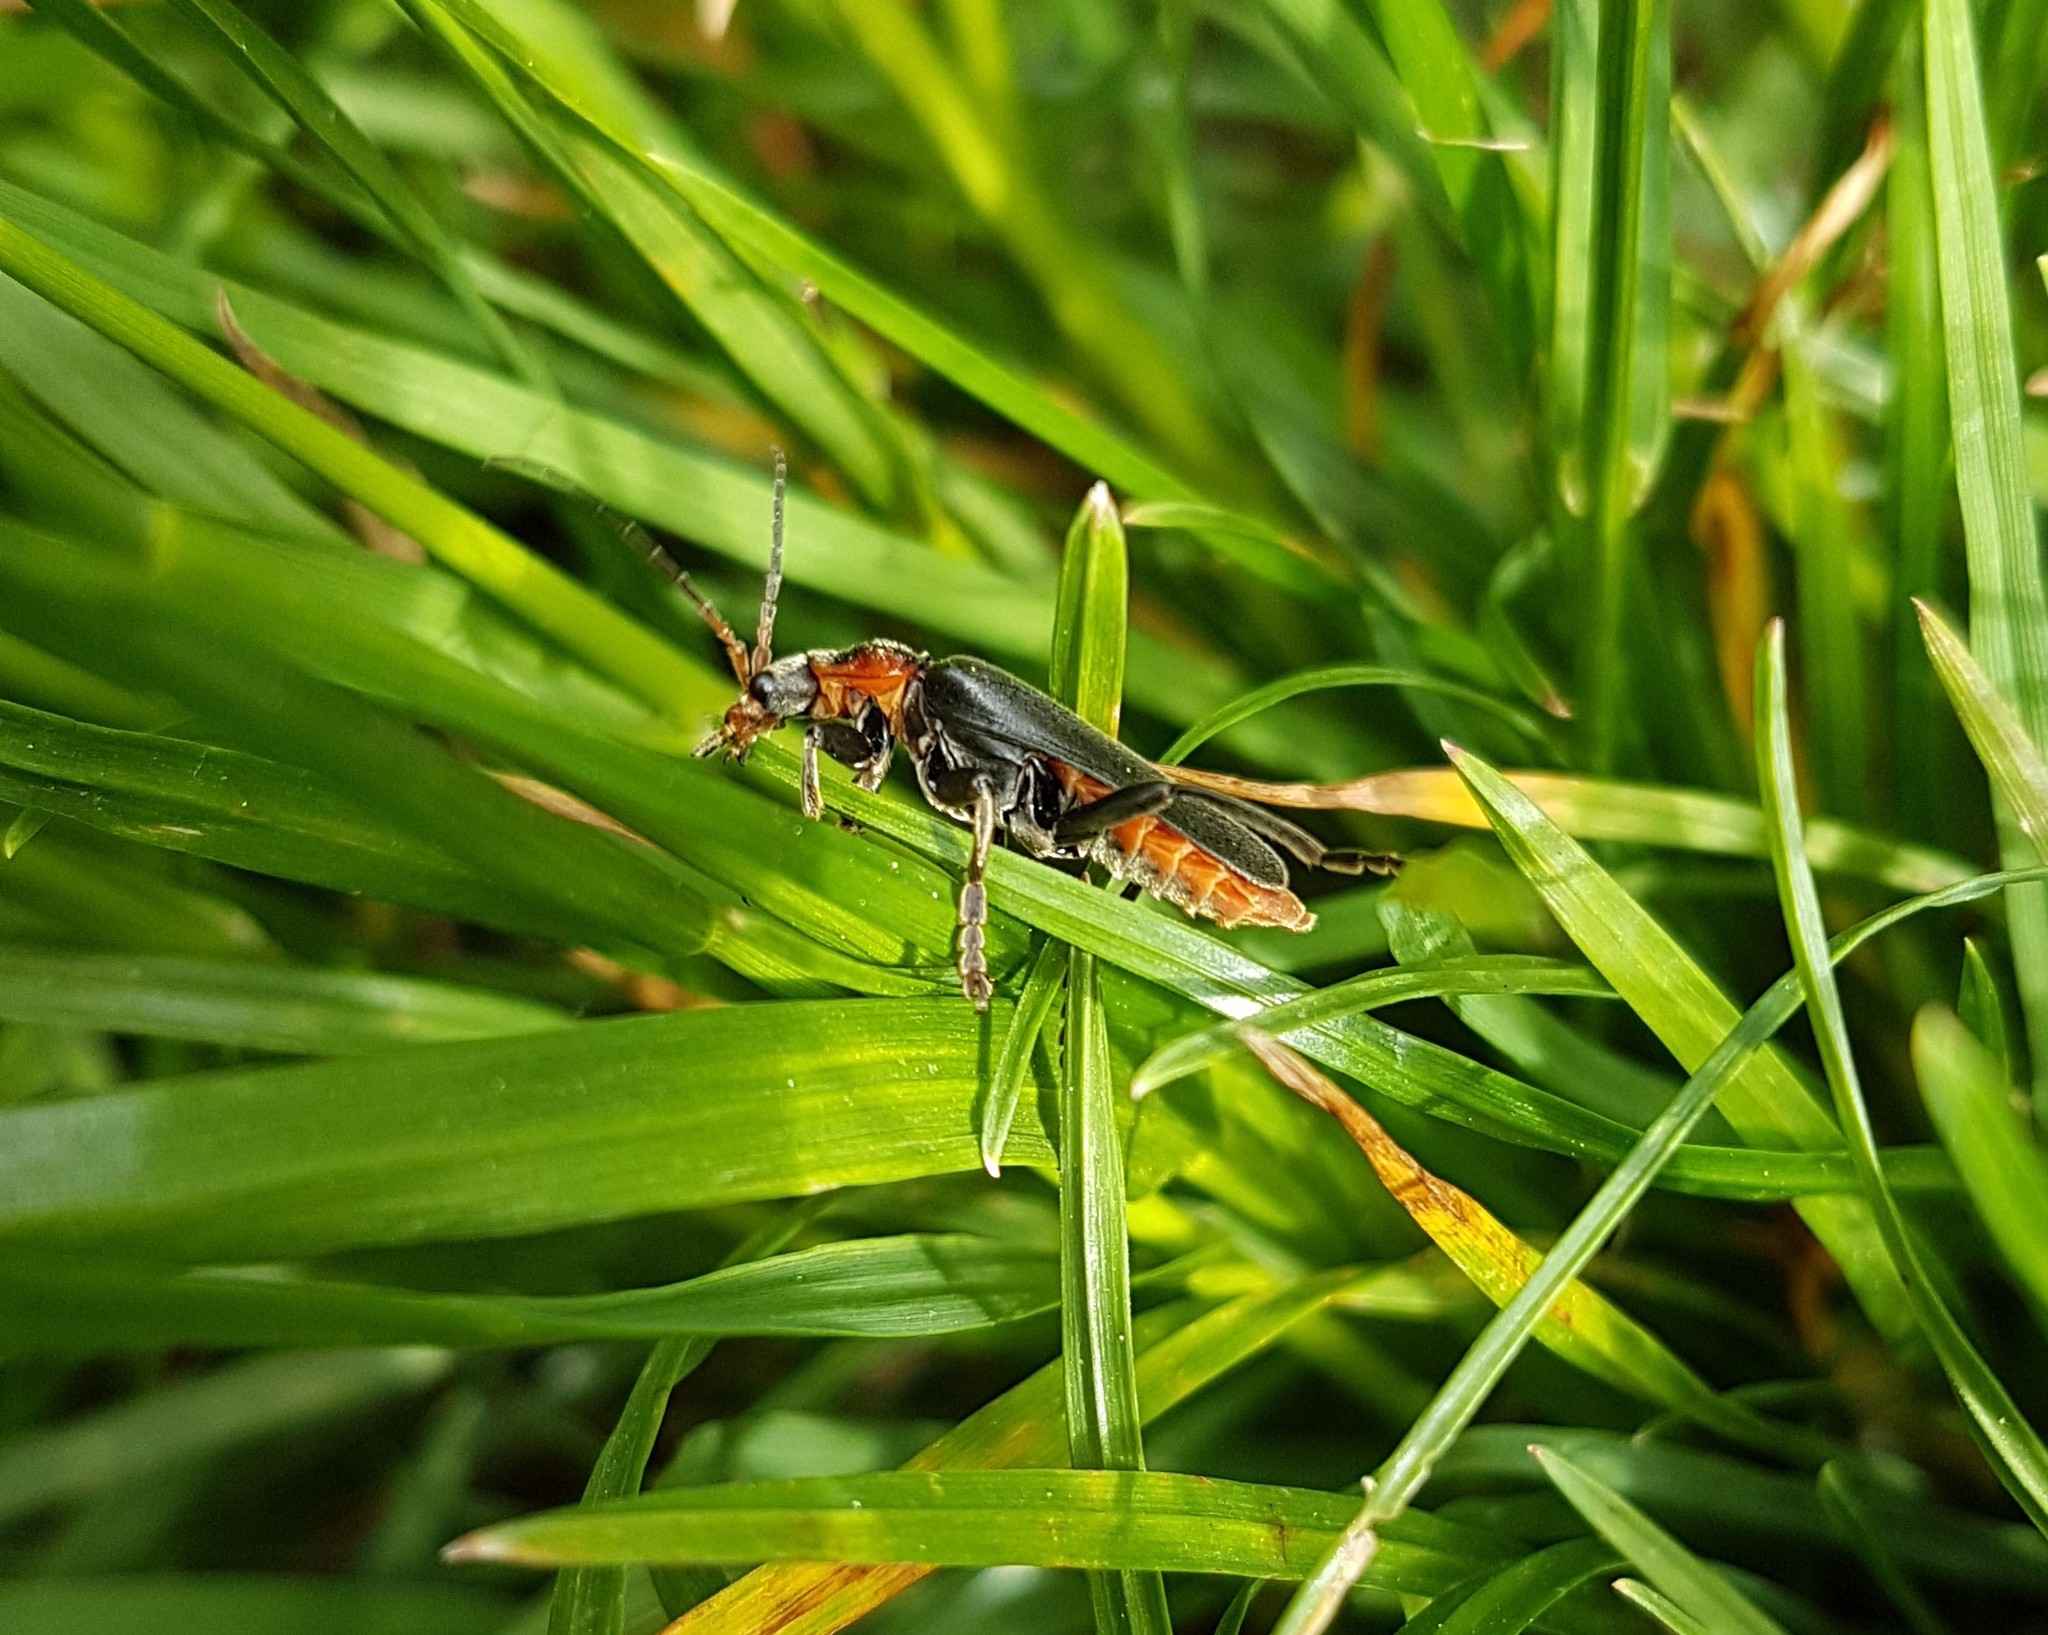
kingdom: Animalia
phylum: Arthropoda
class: Insecta
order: Coleoptera
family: Cantharidae
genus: Cantharis
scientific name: Cantharis fusca
